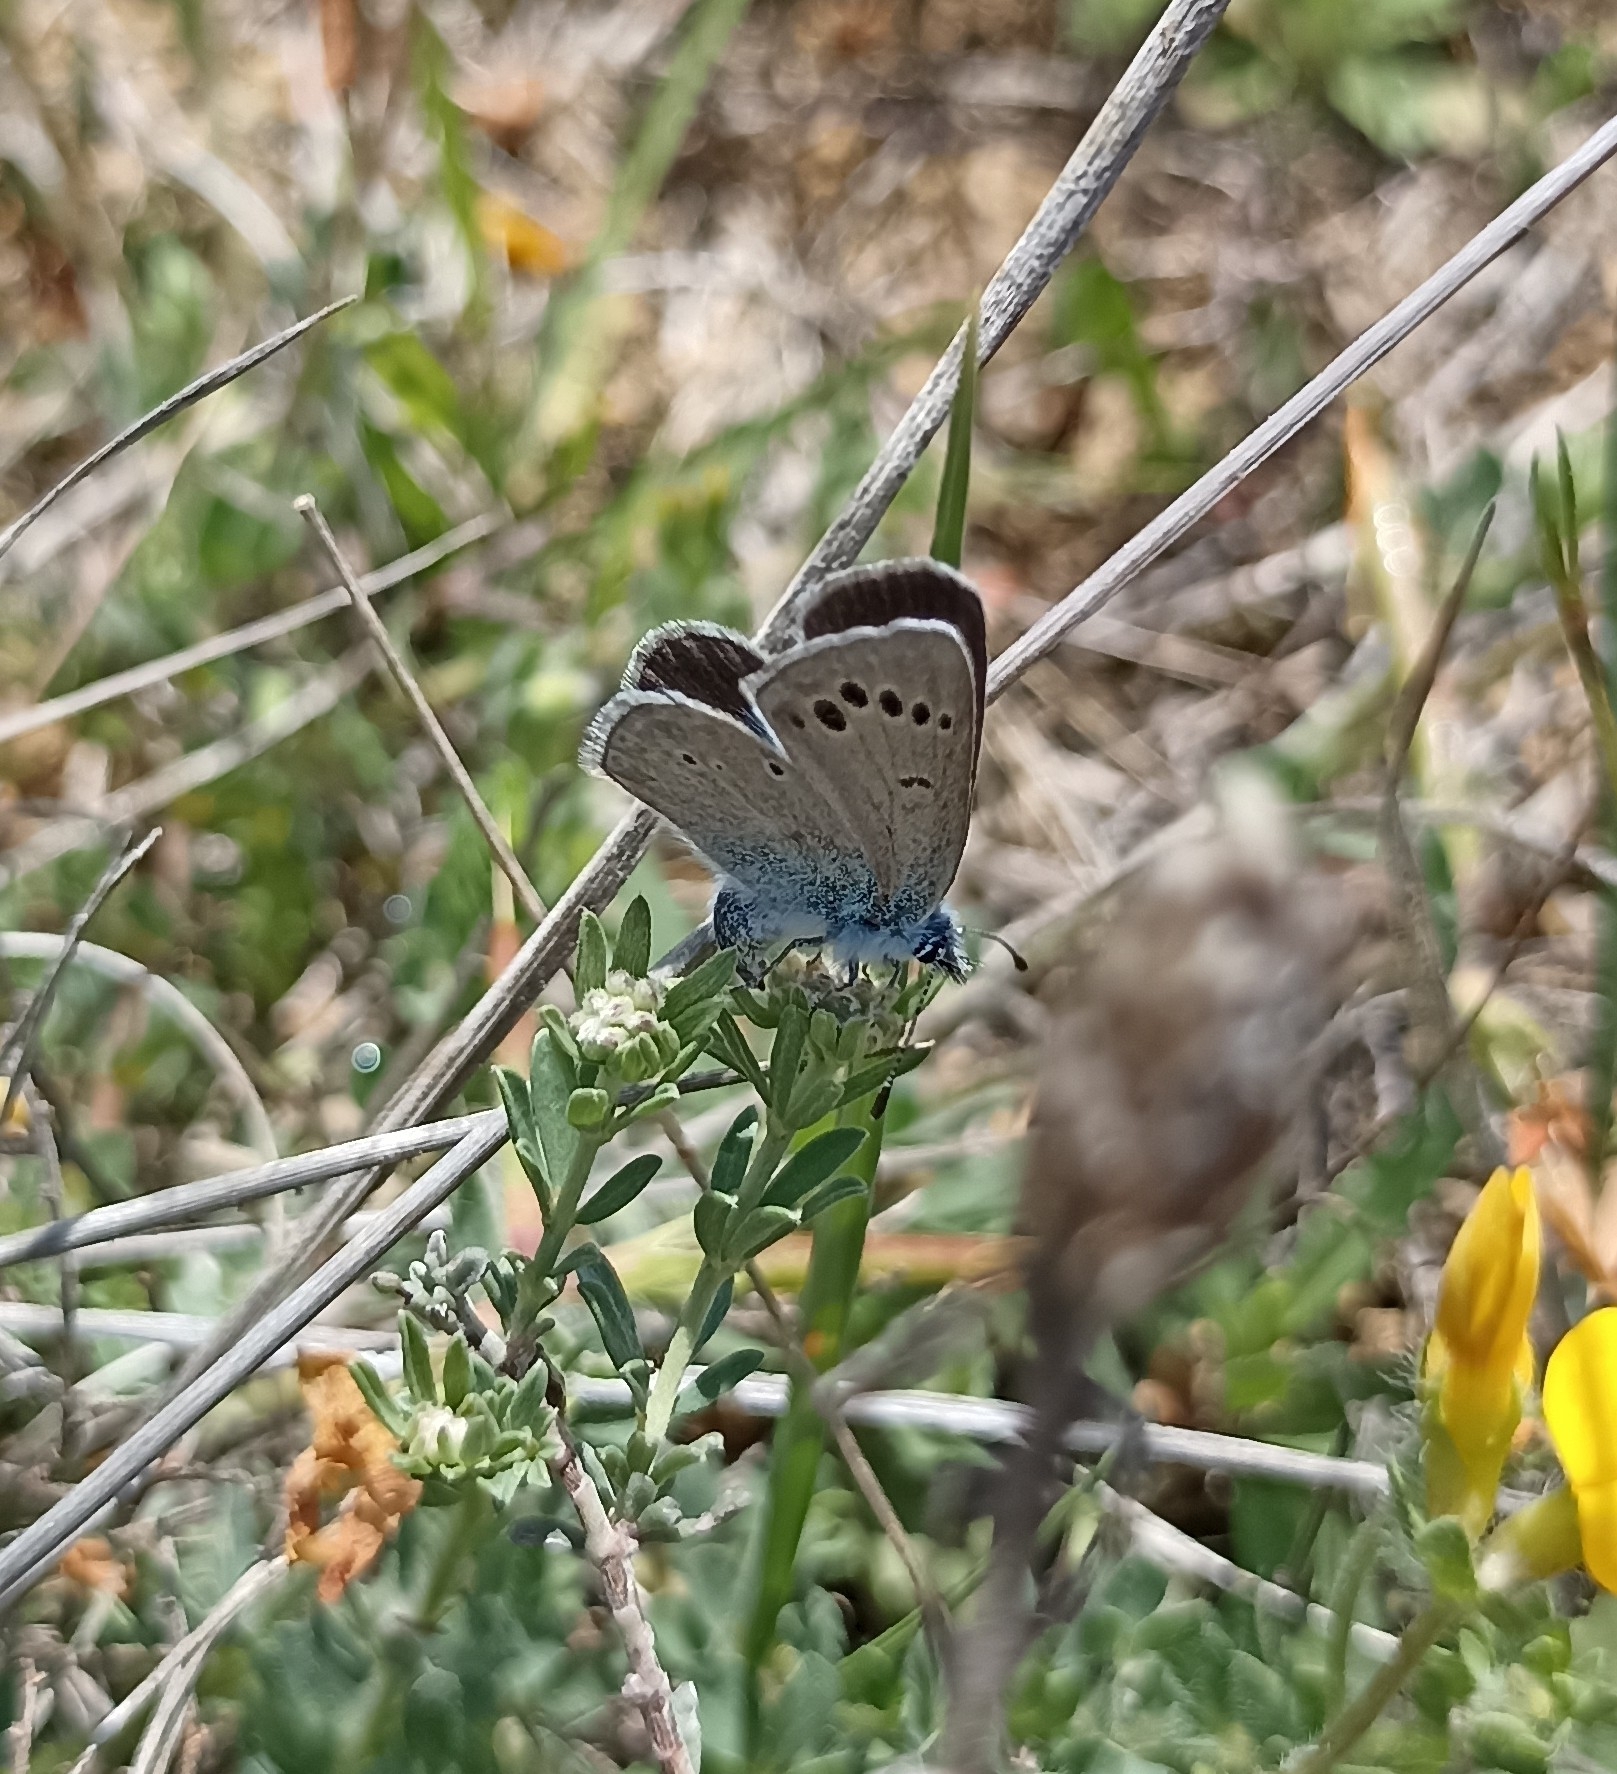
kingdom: Animalia
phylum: Arthropoda
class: Insecta
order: Lepidoptera
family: Lycaenidae
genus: Glaucopsyche
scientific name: Glaucopsyche melanops
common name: Black-eyed blue
